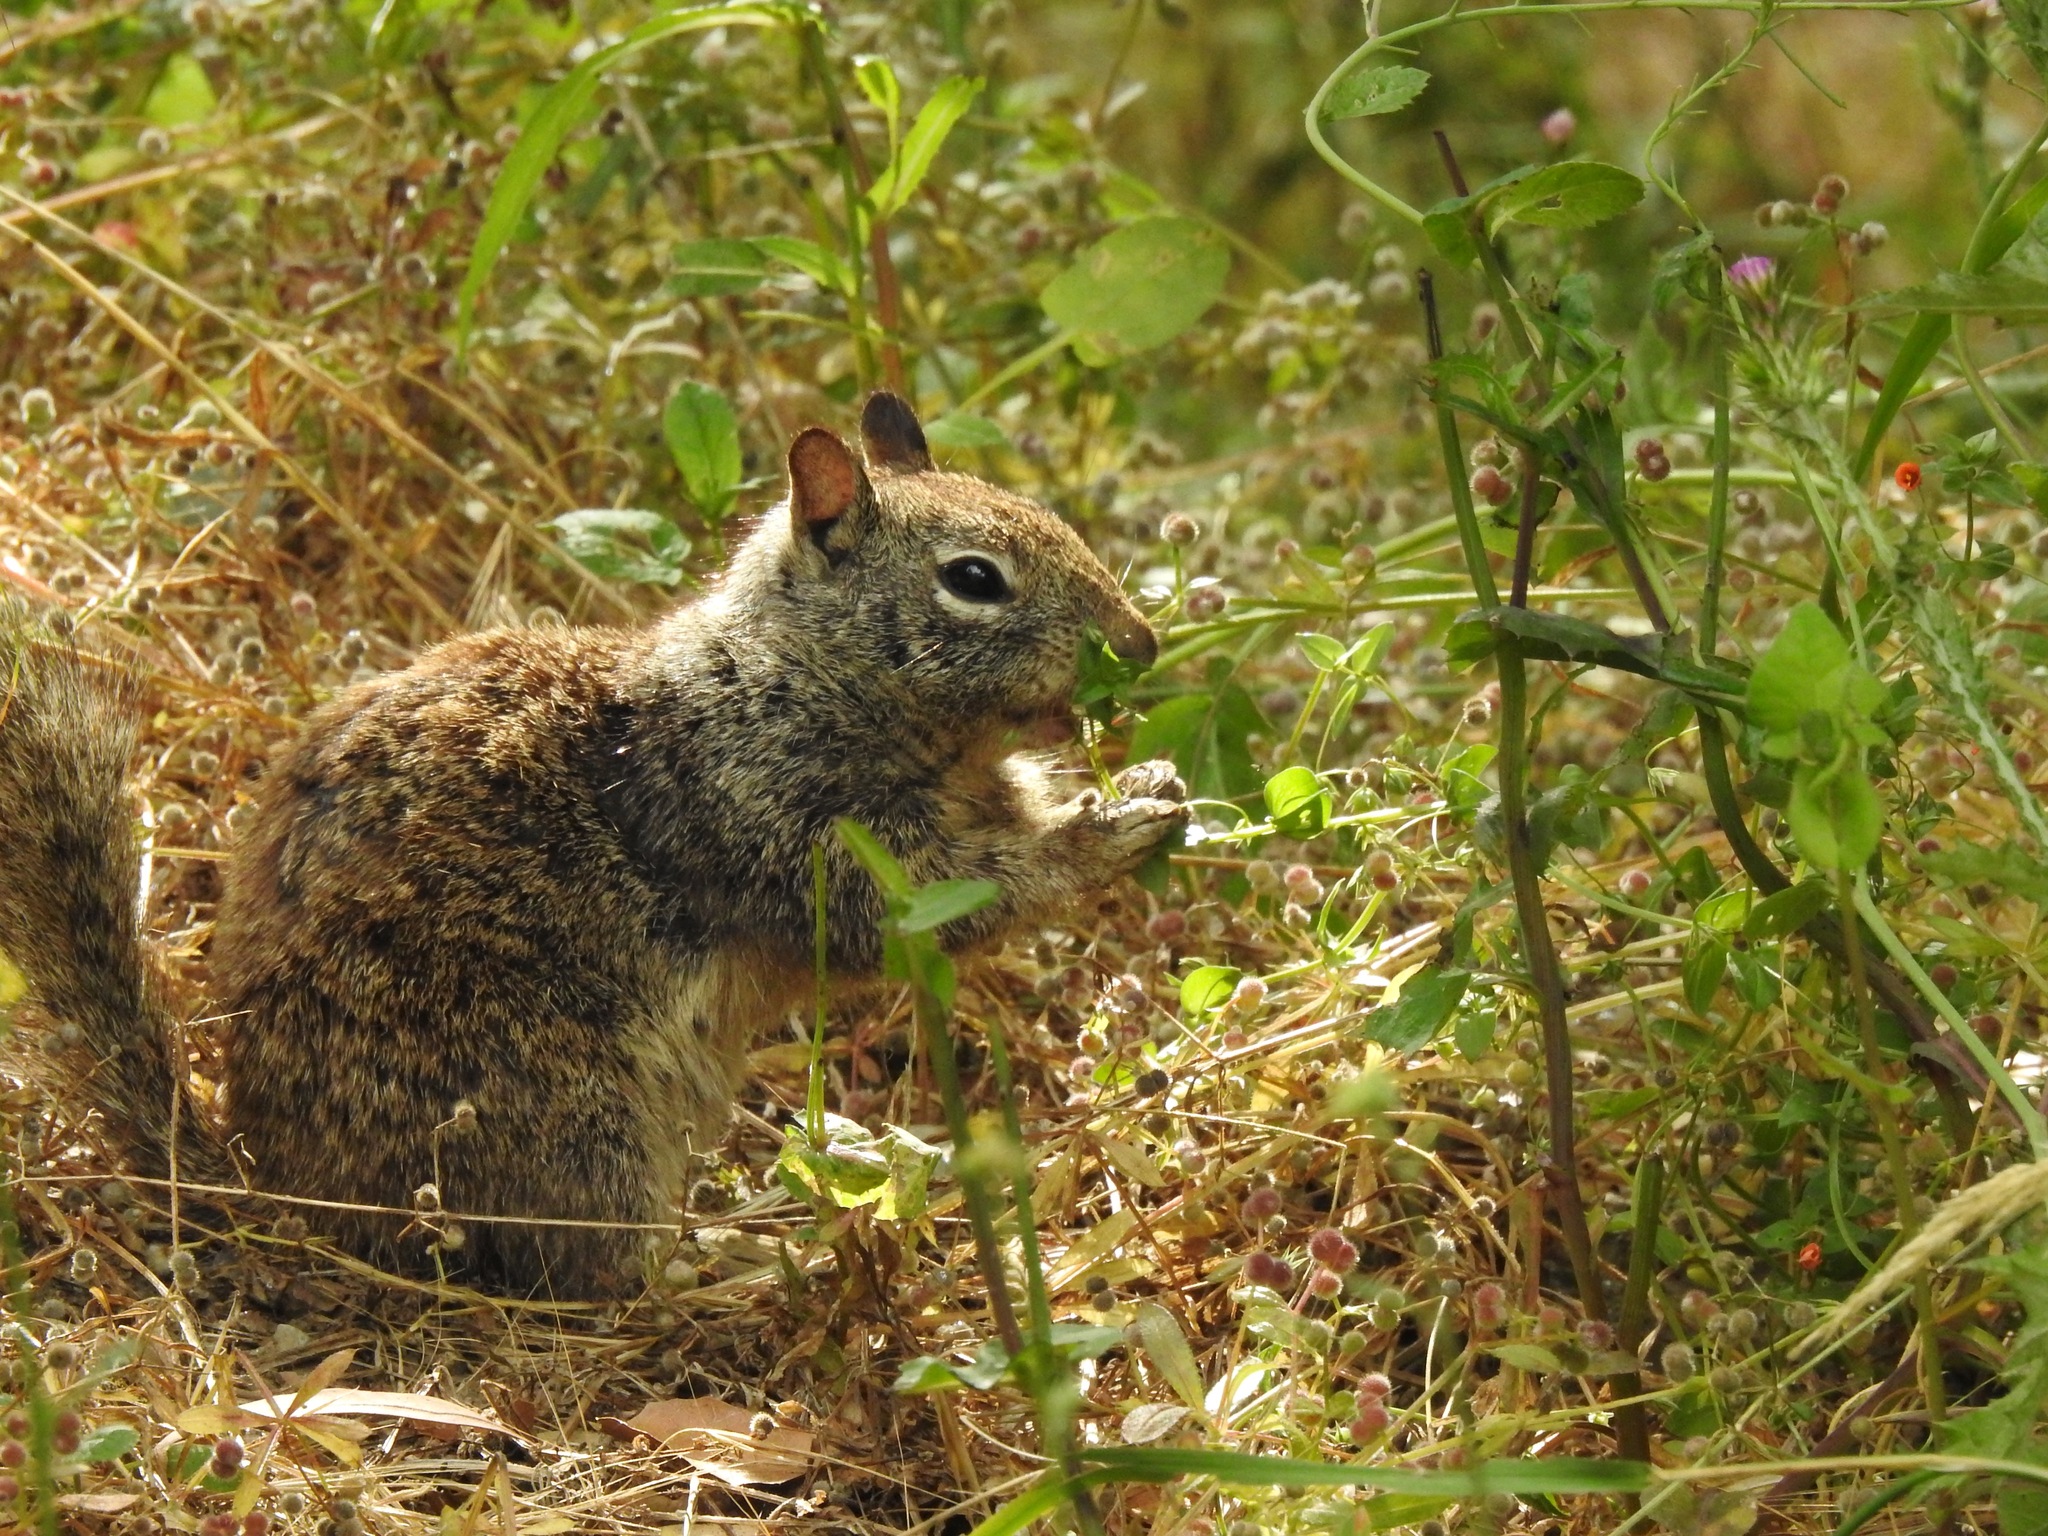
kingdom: Animalia
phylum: Chordata
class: Mammalia
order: Rodentia
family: Sciuridae
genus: Otospermophilus
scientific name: Otospermophilus beecheyi
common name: California ground squirrel
